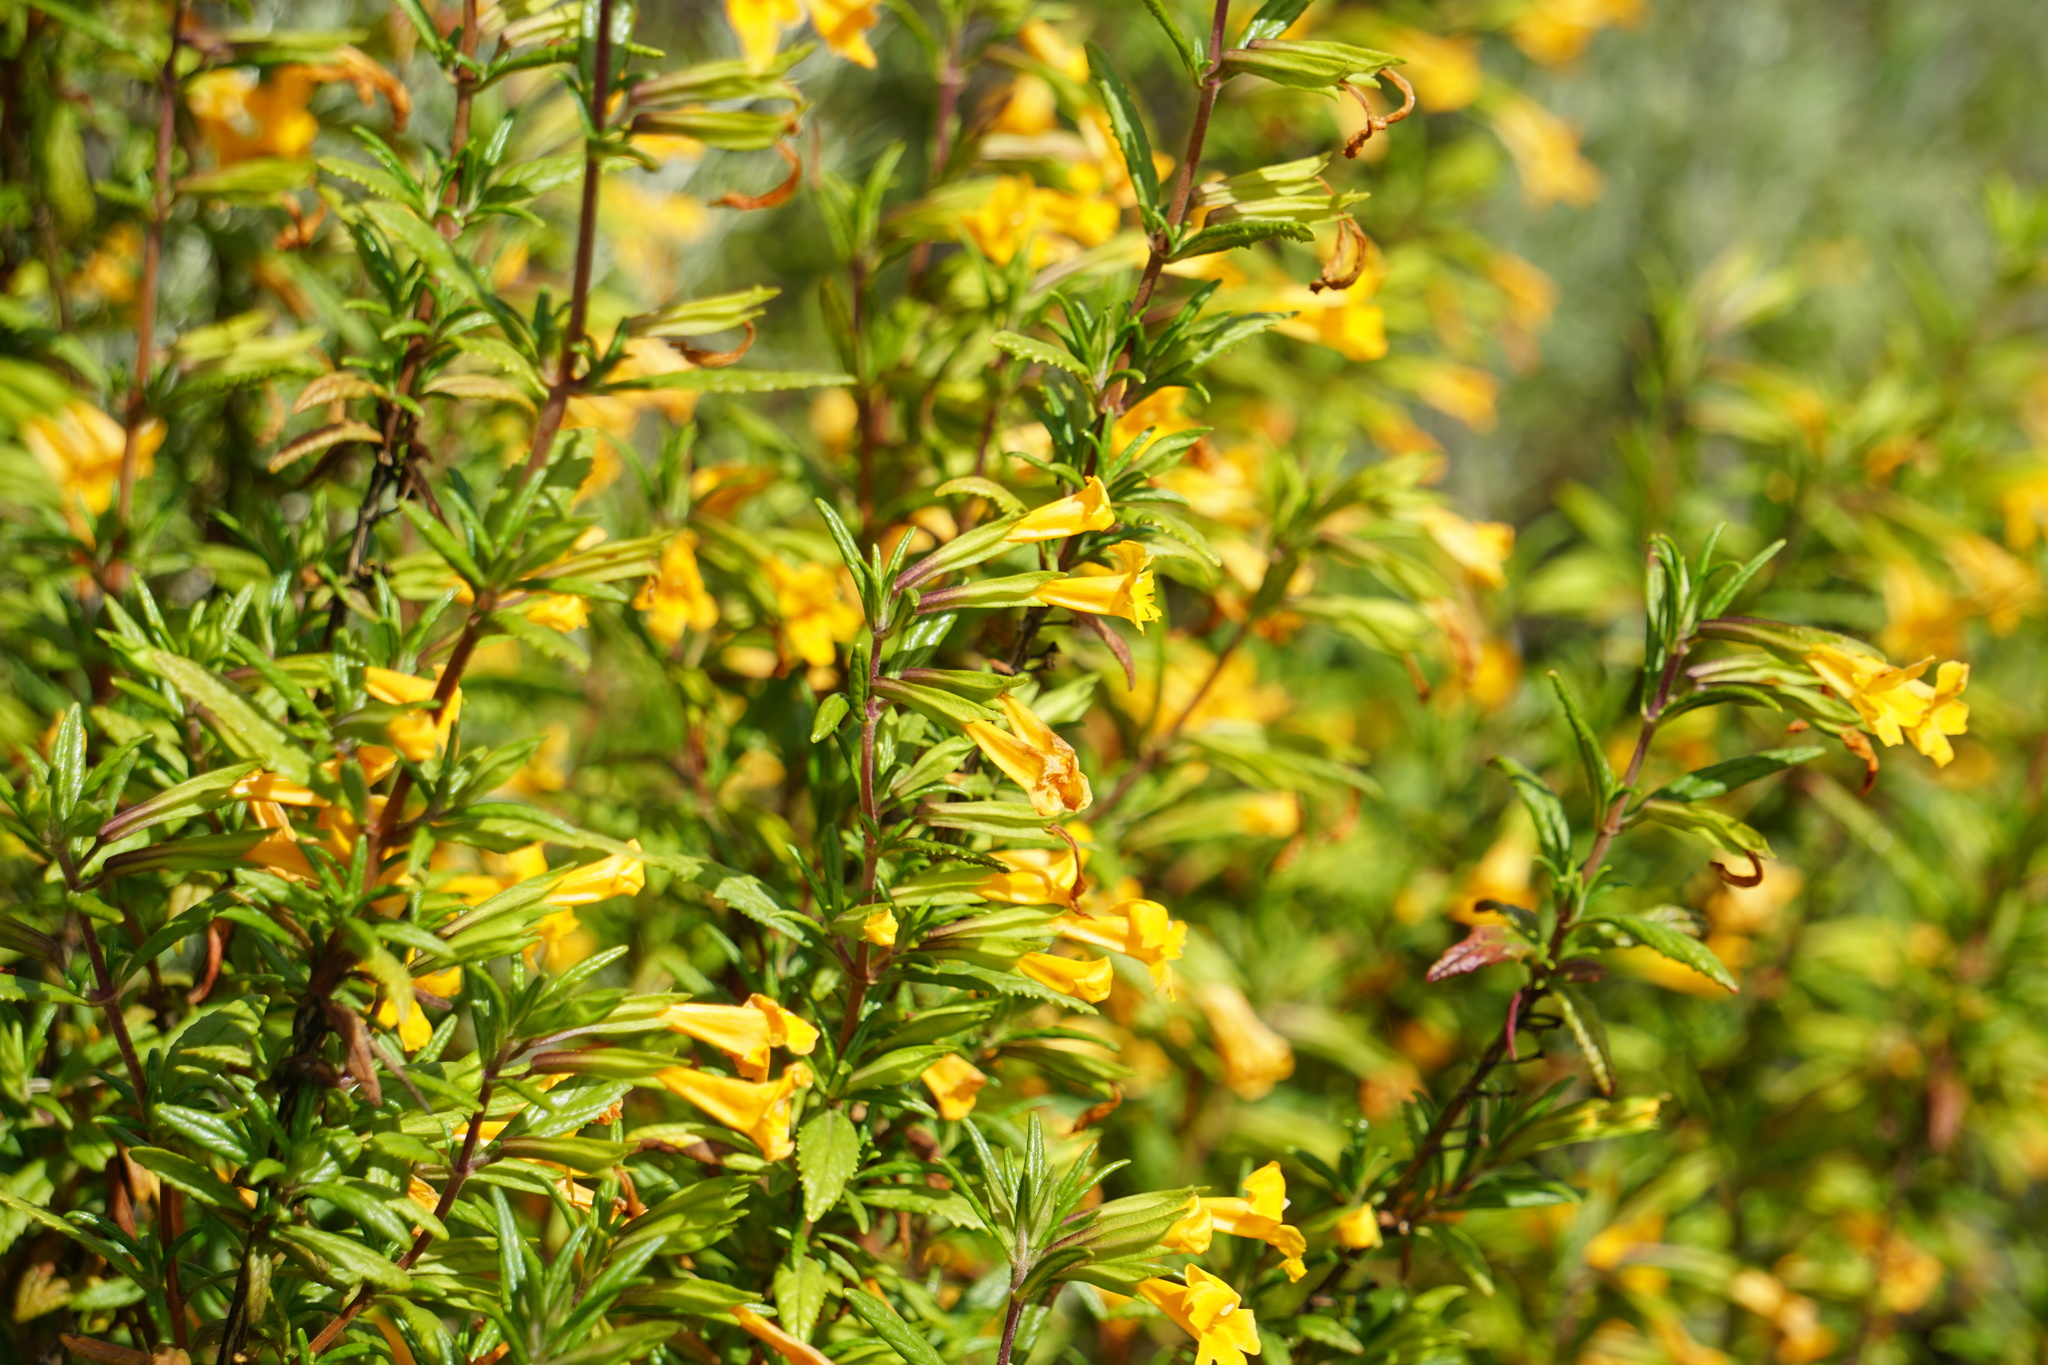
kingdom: Plantae
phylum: Tracheophyta
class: Magnoliopsida
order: Lamiales
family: Phrymaceae
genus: Diplacus
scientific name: Diplacus aurantiacus
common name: Bush monkey-flower
